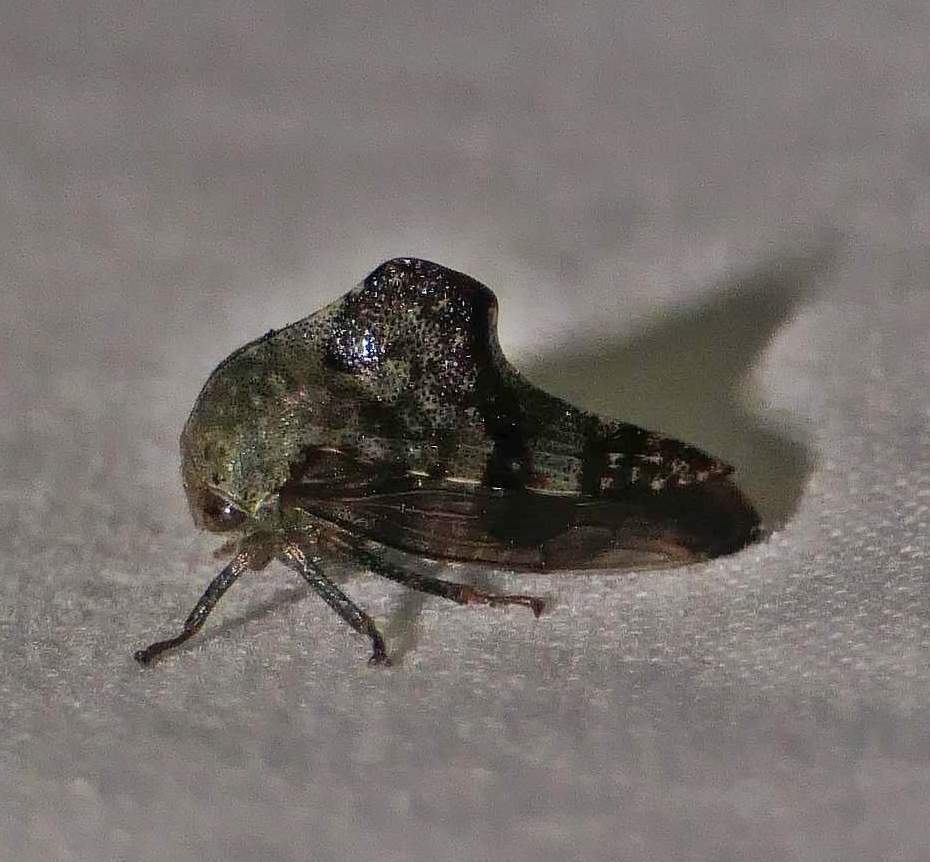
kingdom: Animalia
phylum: Arthropoda
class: Insecta
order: Hemiptera
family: Membracidae
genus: Telamona
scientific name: Telamona reclivata
